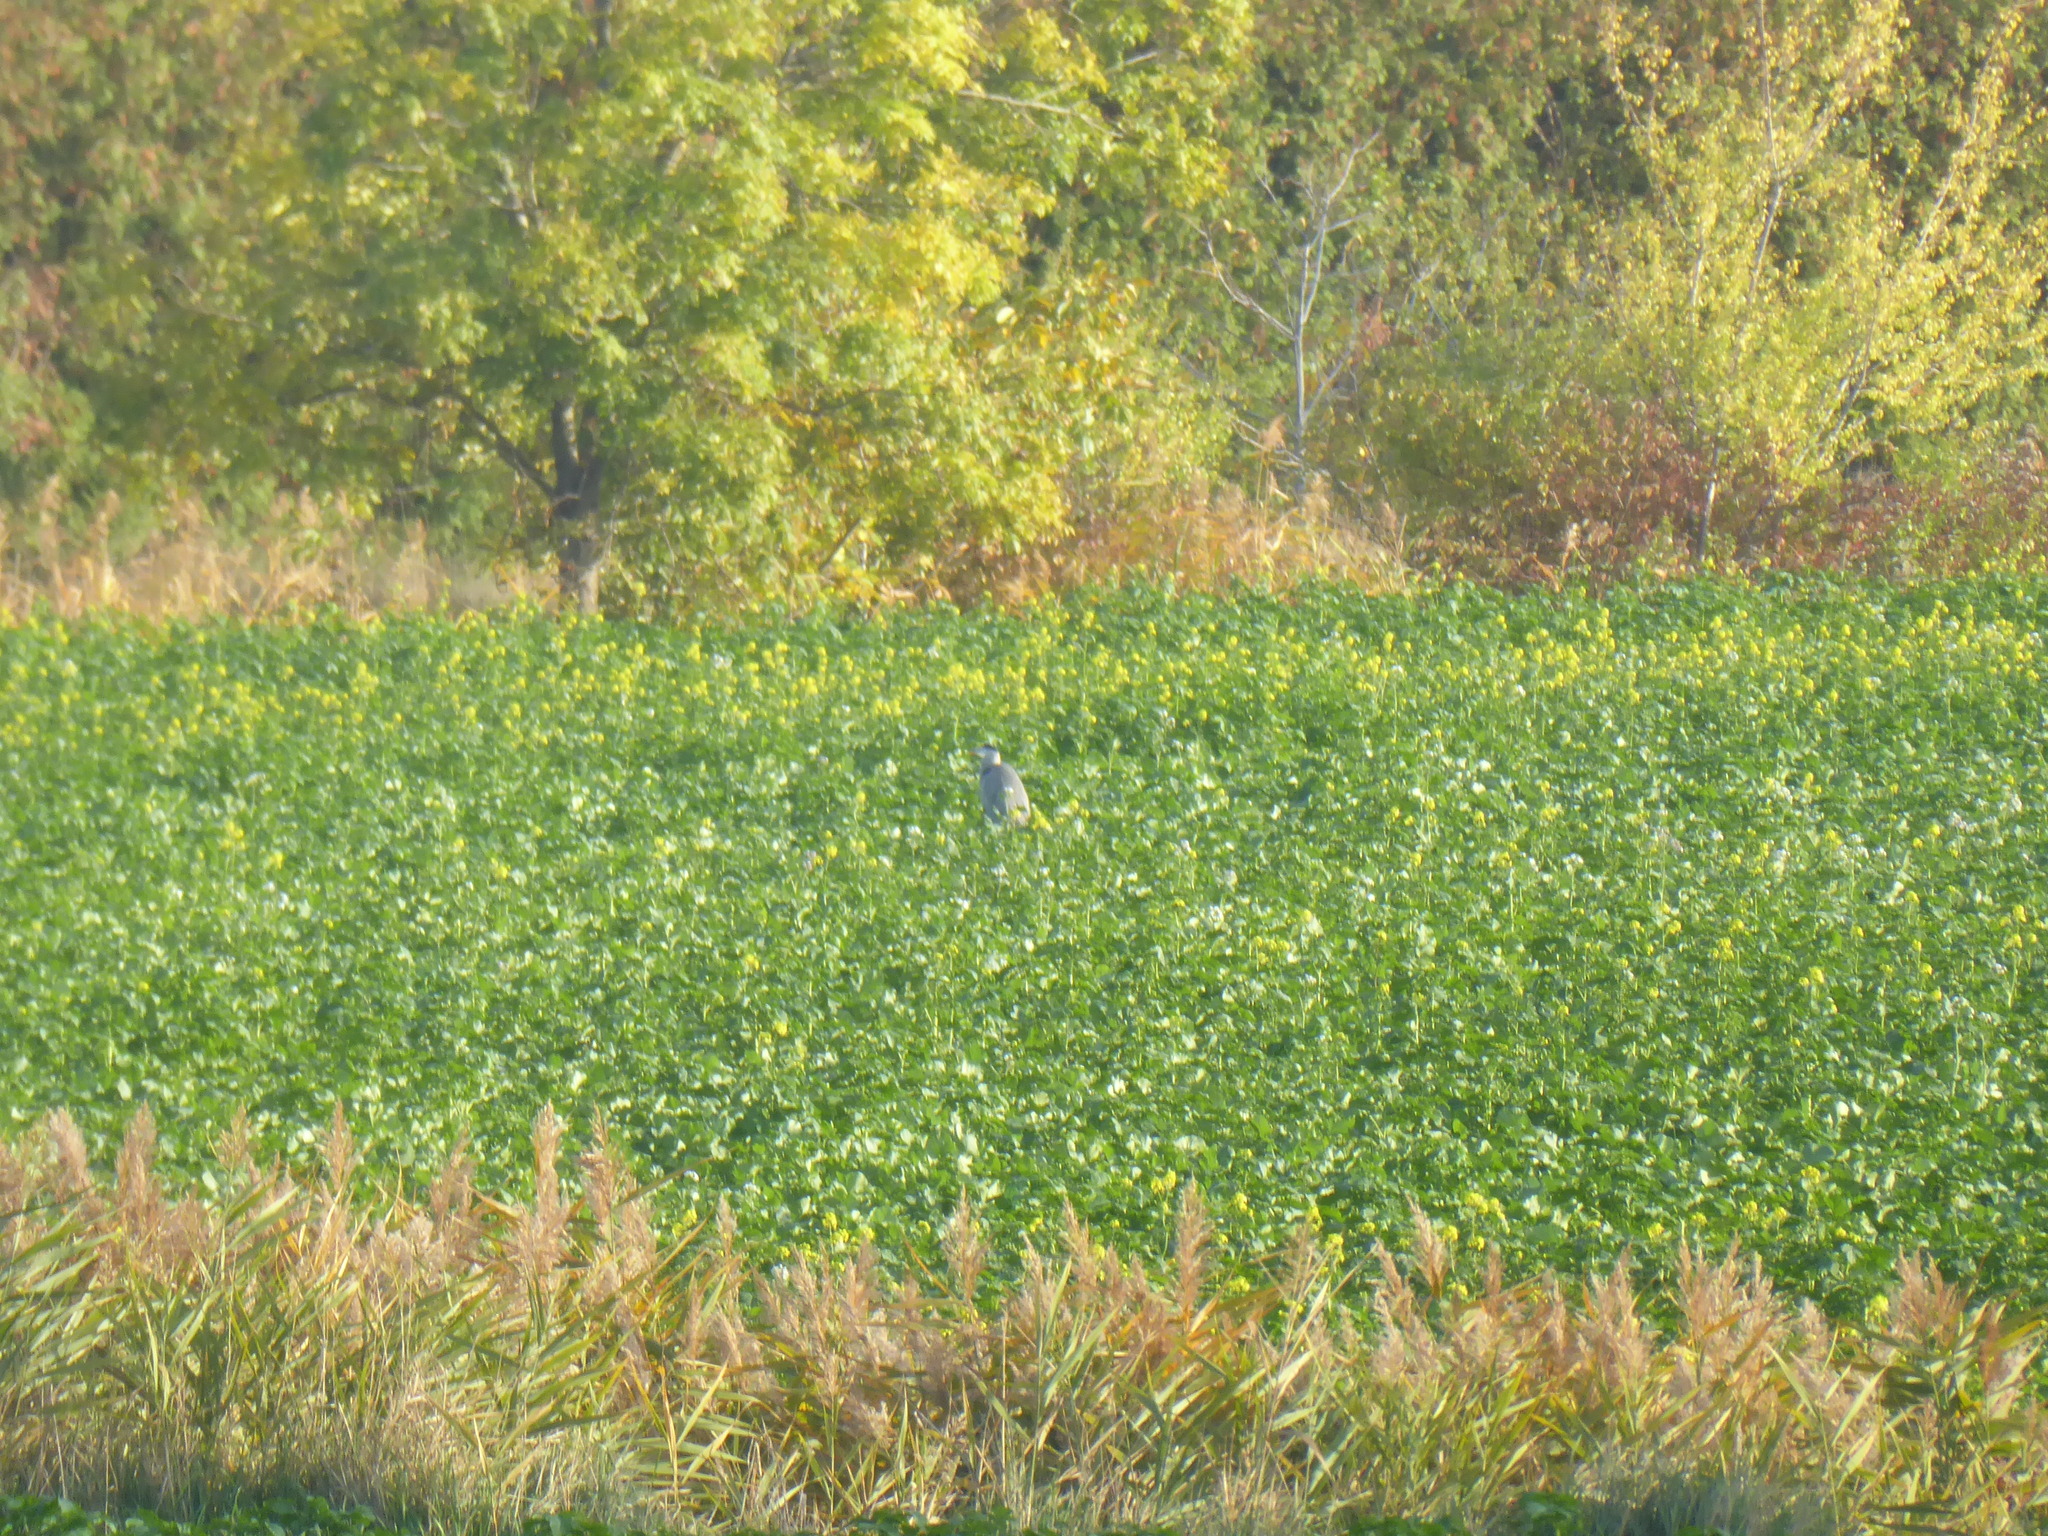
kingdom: Animalia
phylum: Chordata
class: Aves
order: Pelecaniformes
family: Ardeidae
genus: Ardea
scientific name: Ardea cinerea
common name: Grey heron
